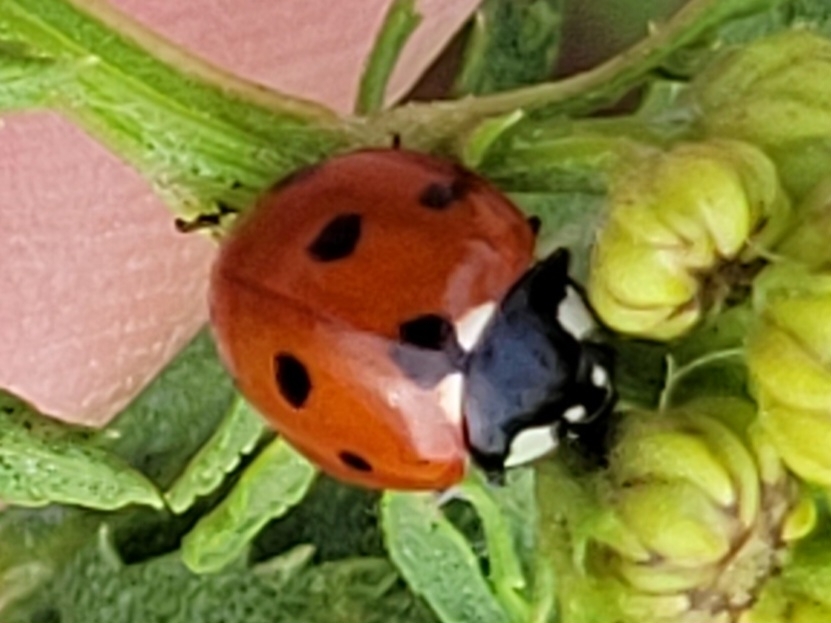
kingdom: Animalia
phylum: Arthropoda
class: Insecta
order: Coleoptera
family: Coccinellidae
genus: Coccinella
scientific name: Coccinella septempunctata
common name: Sevenspotted lady beetle
